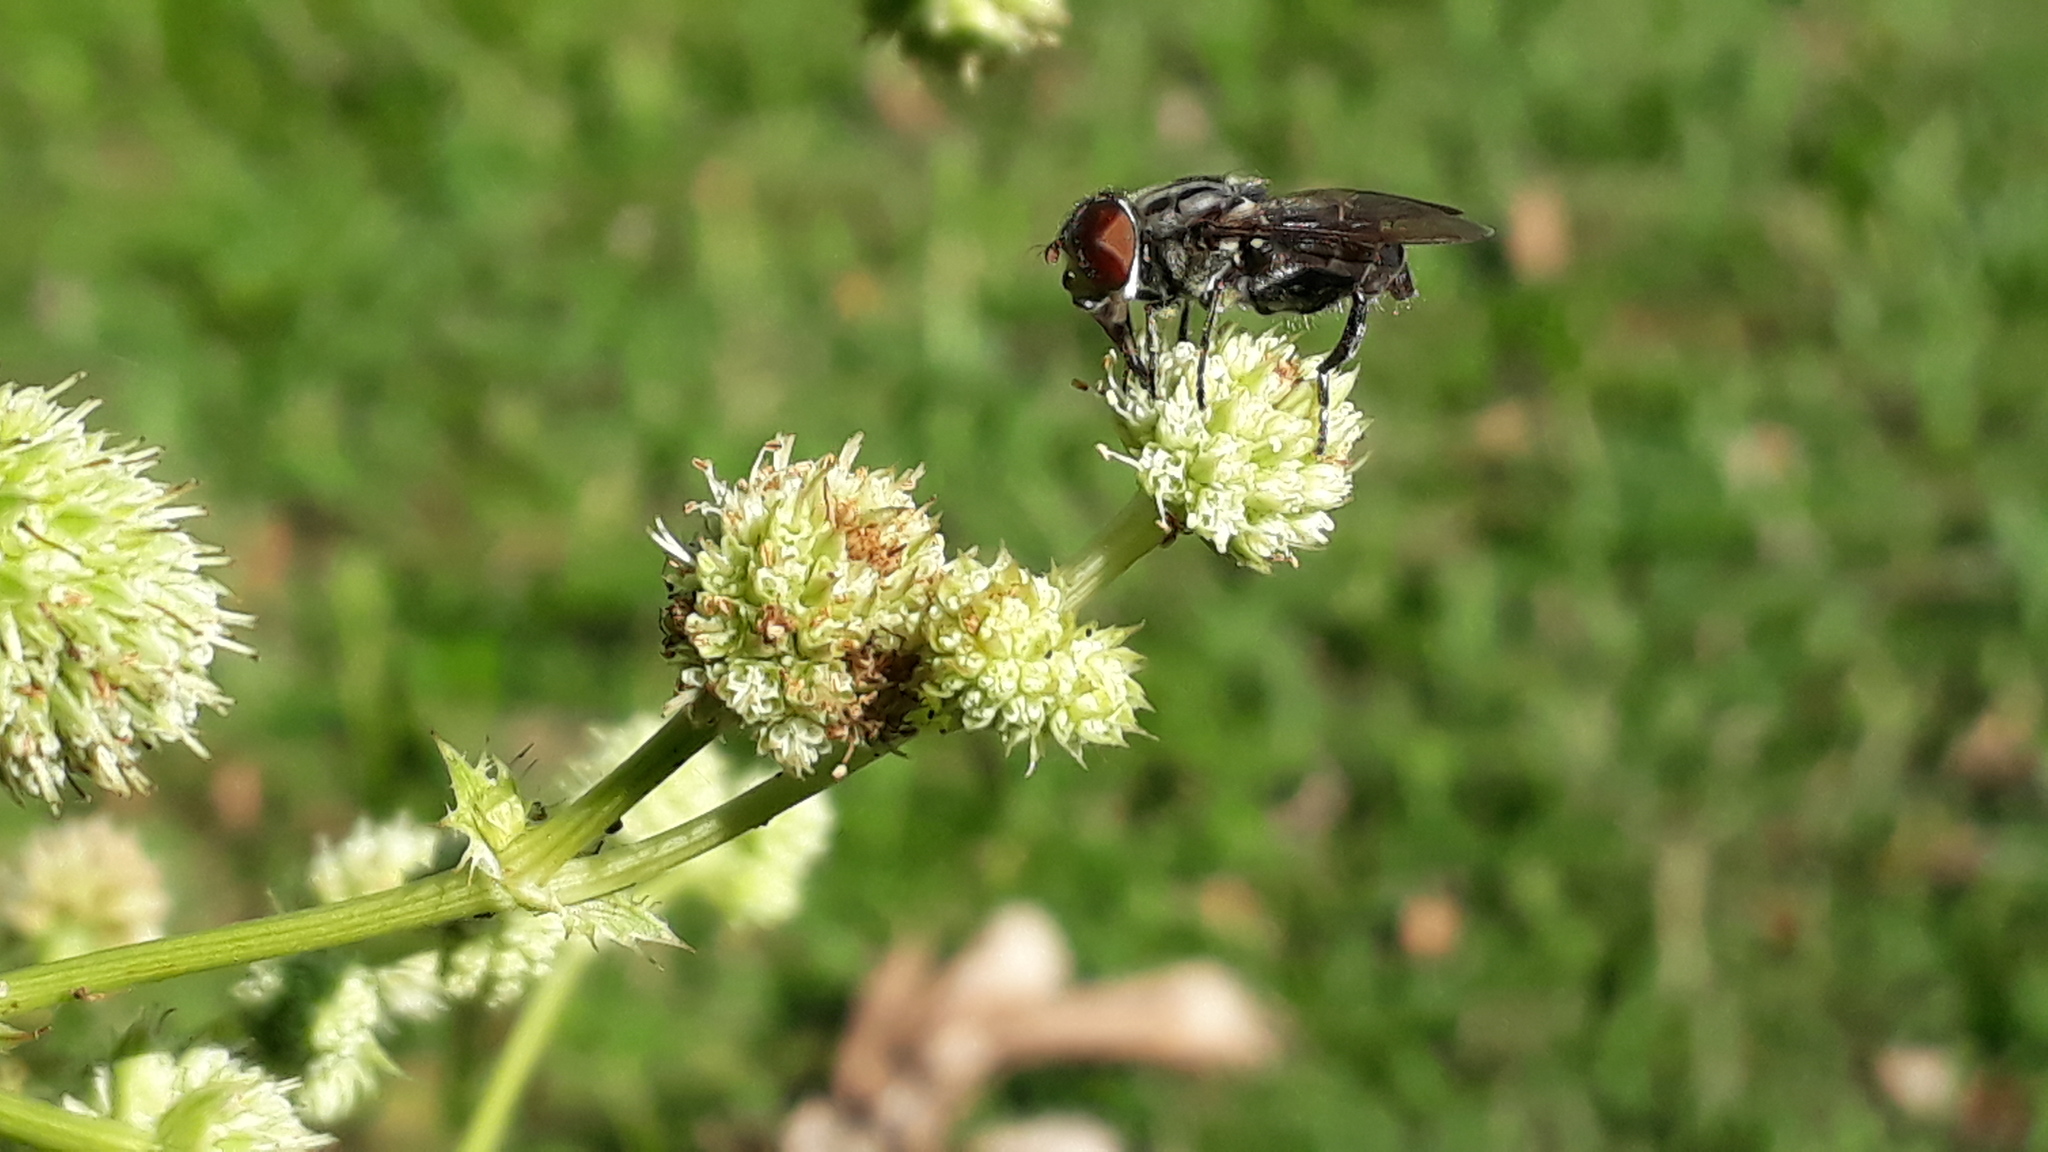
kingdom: Animalia
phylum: Arthropoda
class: Insecta
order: Diptera
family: Syrphidae
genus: Palpada
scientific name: Palpada furcata
